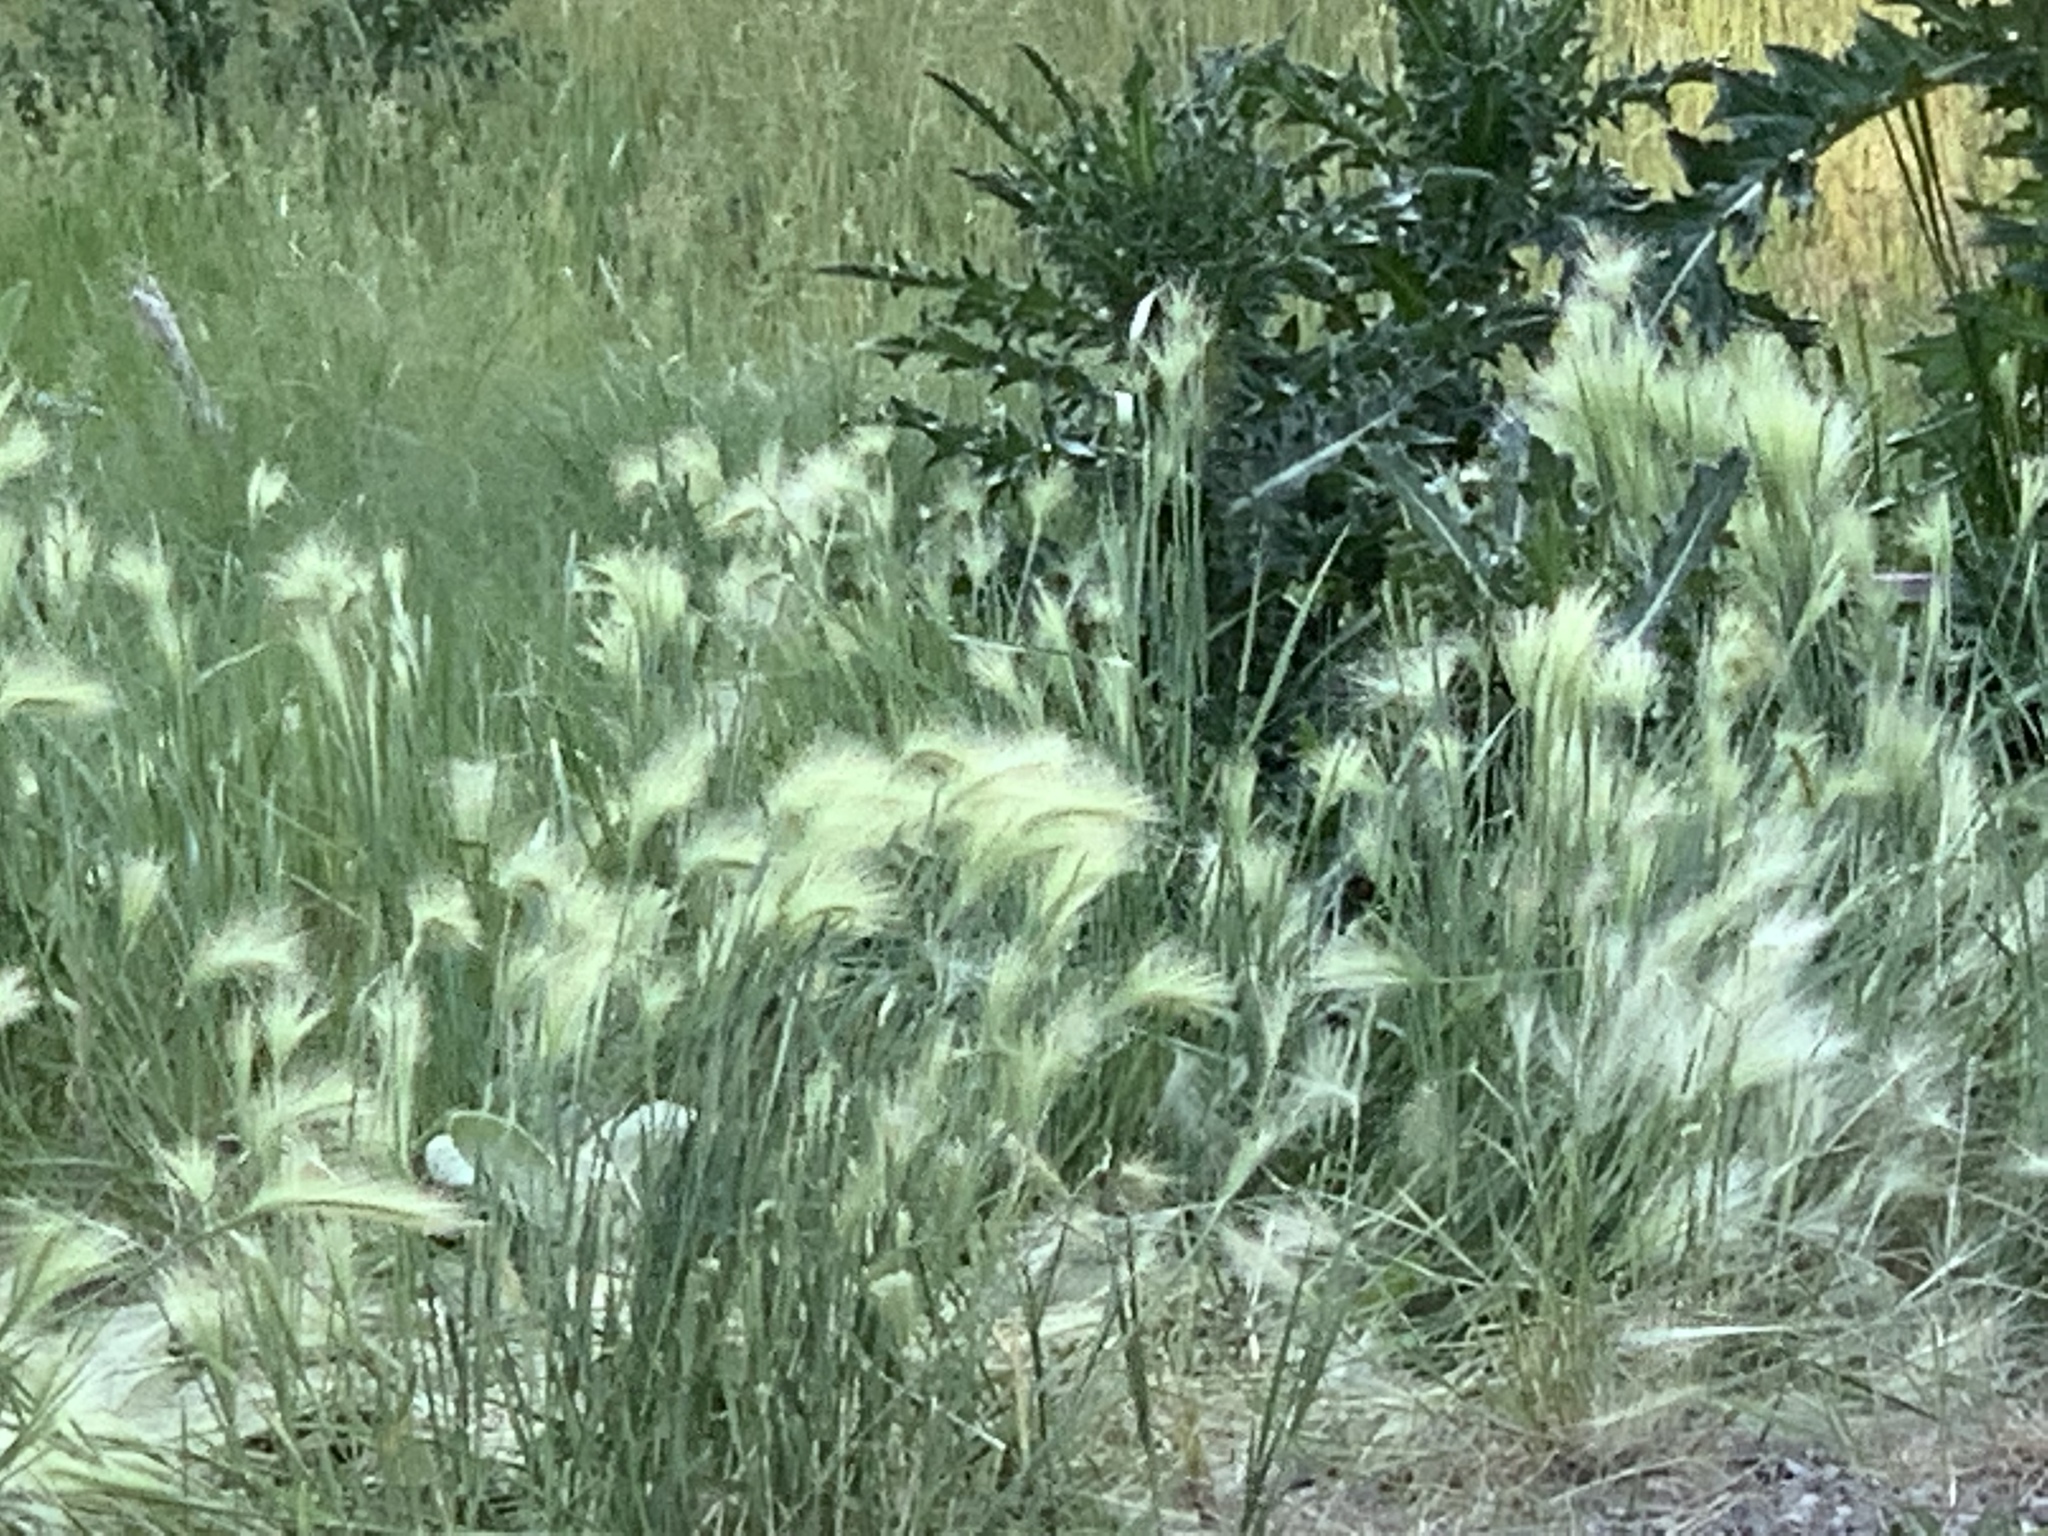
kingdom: Plantae
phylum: Tracheophyta
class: Liliopsida
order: Poales
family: Poaceae
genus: Hordeum
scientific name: Hordeum jubatum
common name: Foxtail barley
